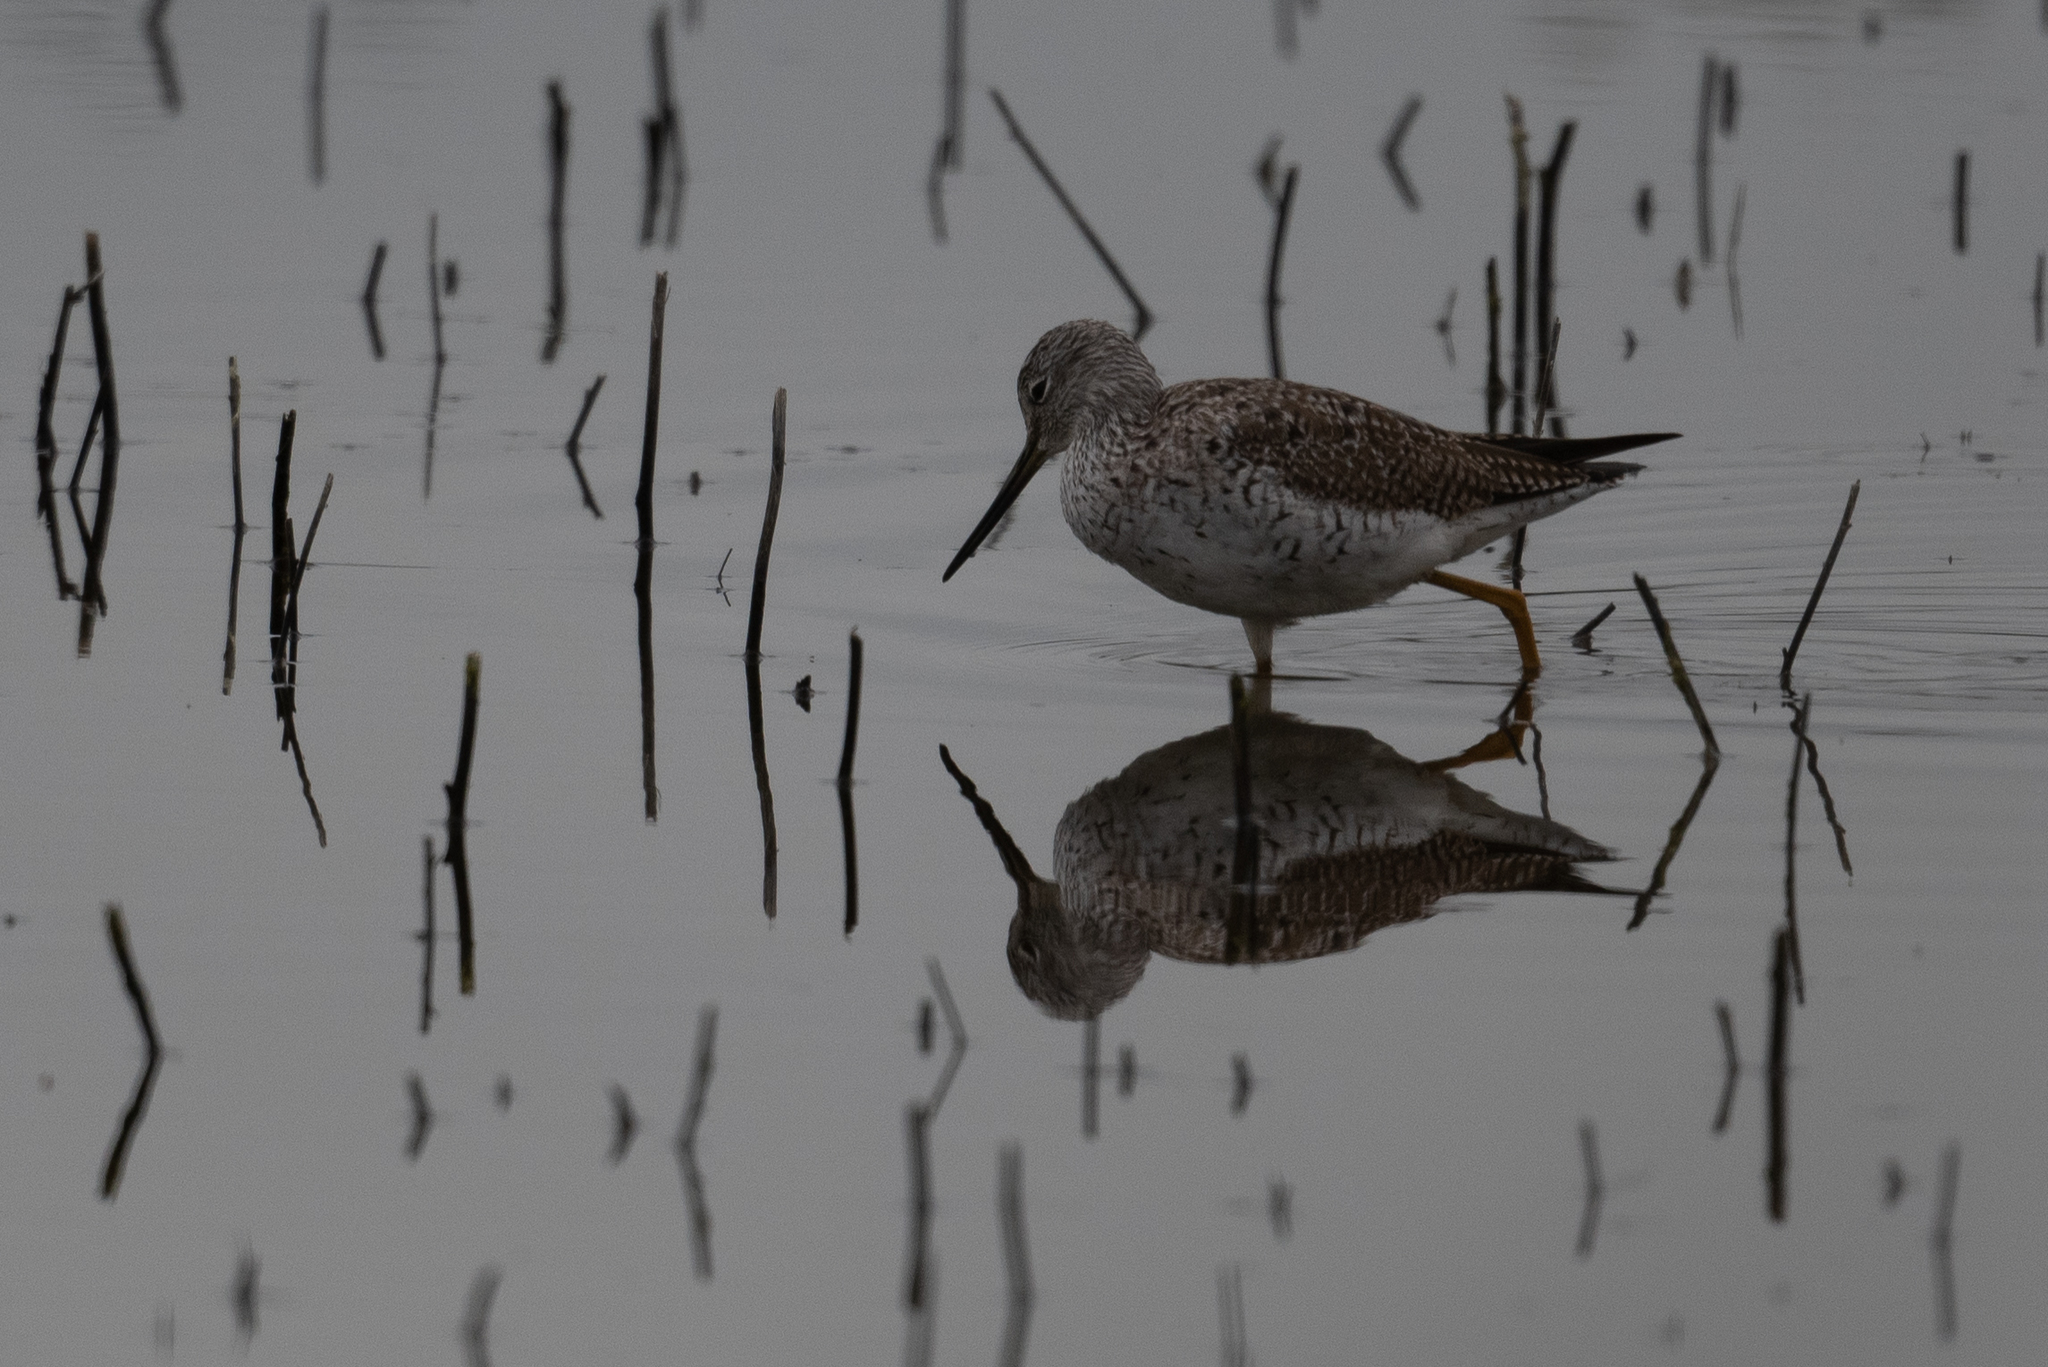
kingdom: Animalia
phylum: Chordata
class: Aves
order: Charadriiformes
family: Scolopacidae
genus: Tringa
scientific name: Tringa melanoleuca
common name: Greater yellowlegs
